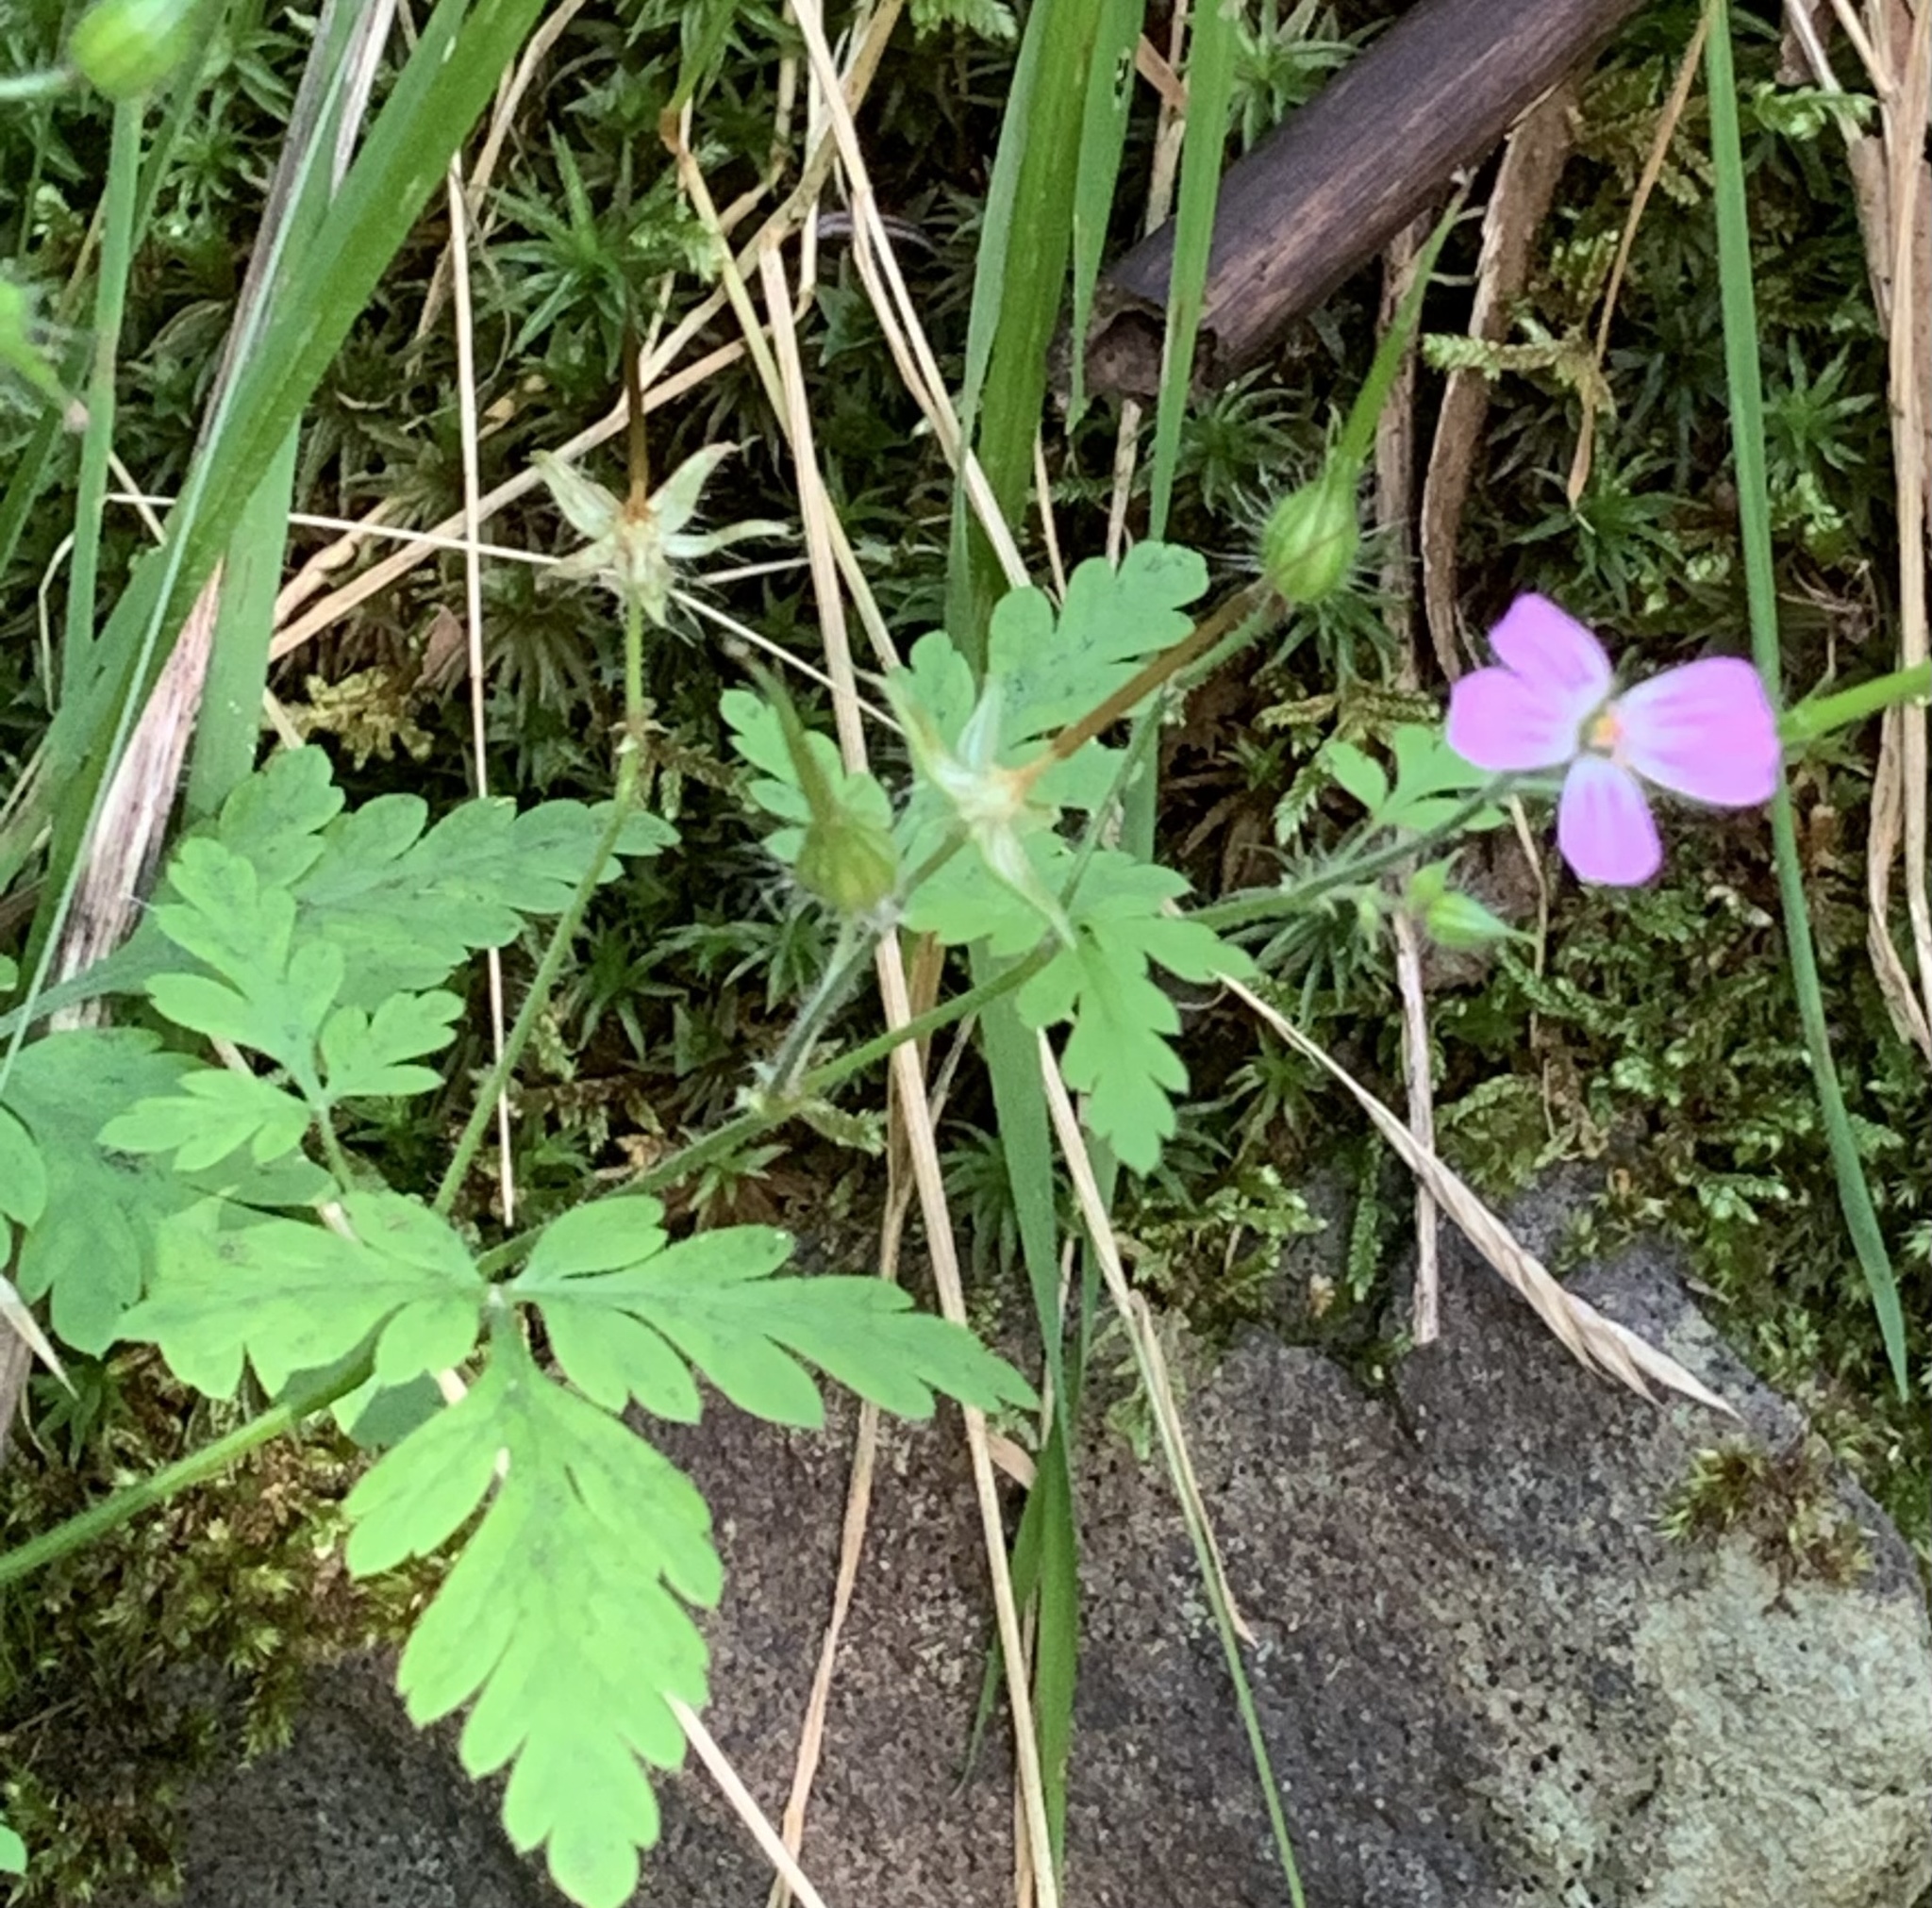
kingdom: Plantae
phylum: Tracheophyta
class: Magnoliopsida
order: Geraniales
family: Geraniaceae
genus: Geranium
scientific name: Geranium robertianum
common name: Herb-robert
